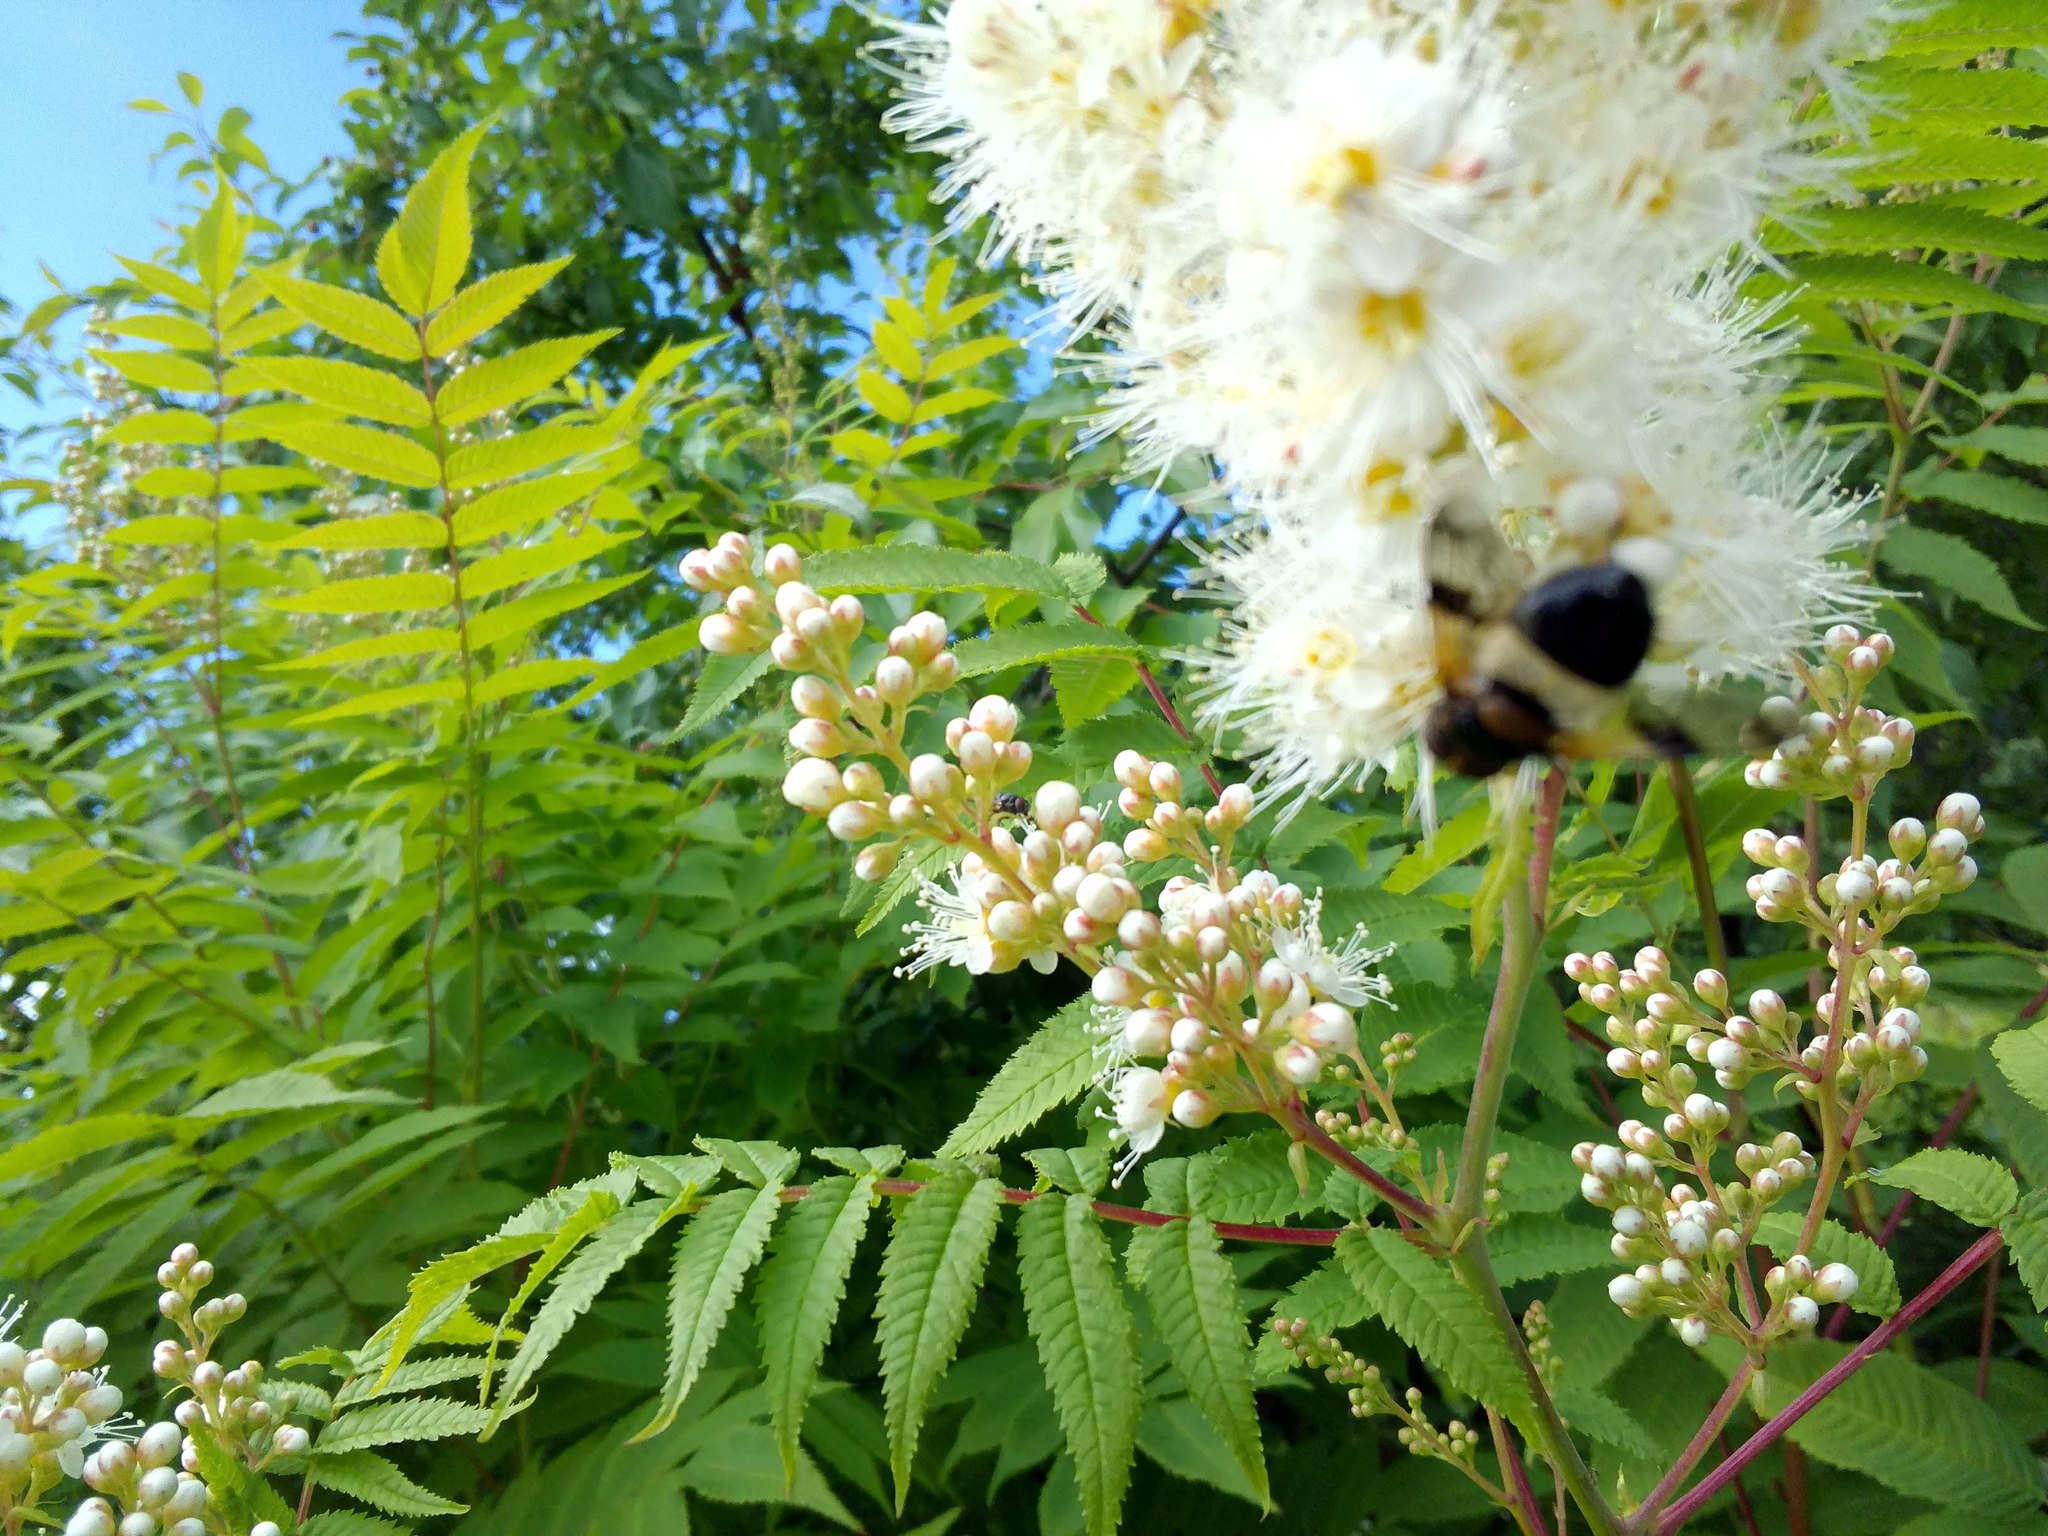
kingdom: Animalia
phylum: Arthropoda
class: Insecta
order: Diptera
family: Syrphidae
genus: Volucella
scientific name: Volucella pellucens
